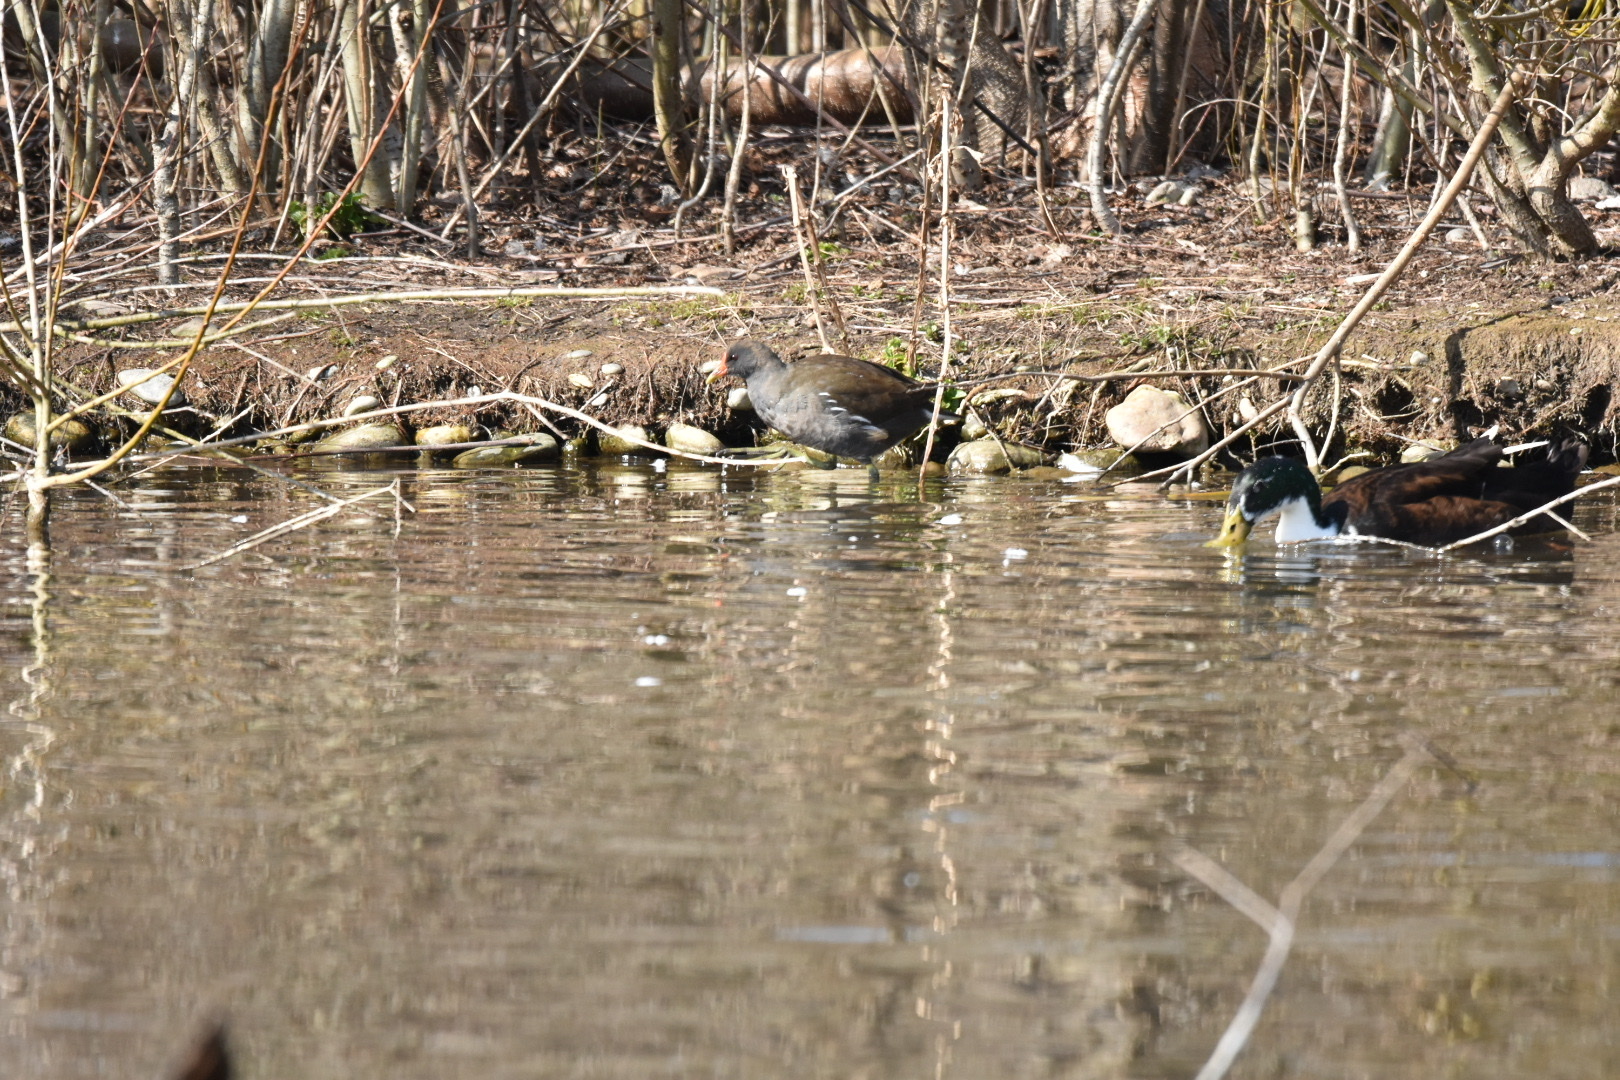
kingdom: Animalia
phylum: Chordata
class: Aves
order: Gruiformes
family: Rallidae
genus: Gallinula
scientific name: Gallinula chloropus
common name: Common moorhen
